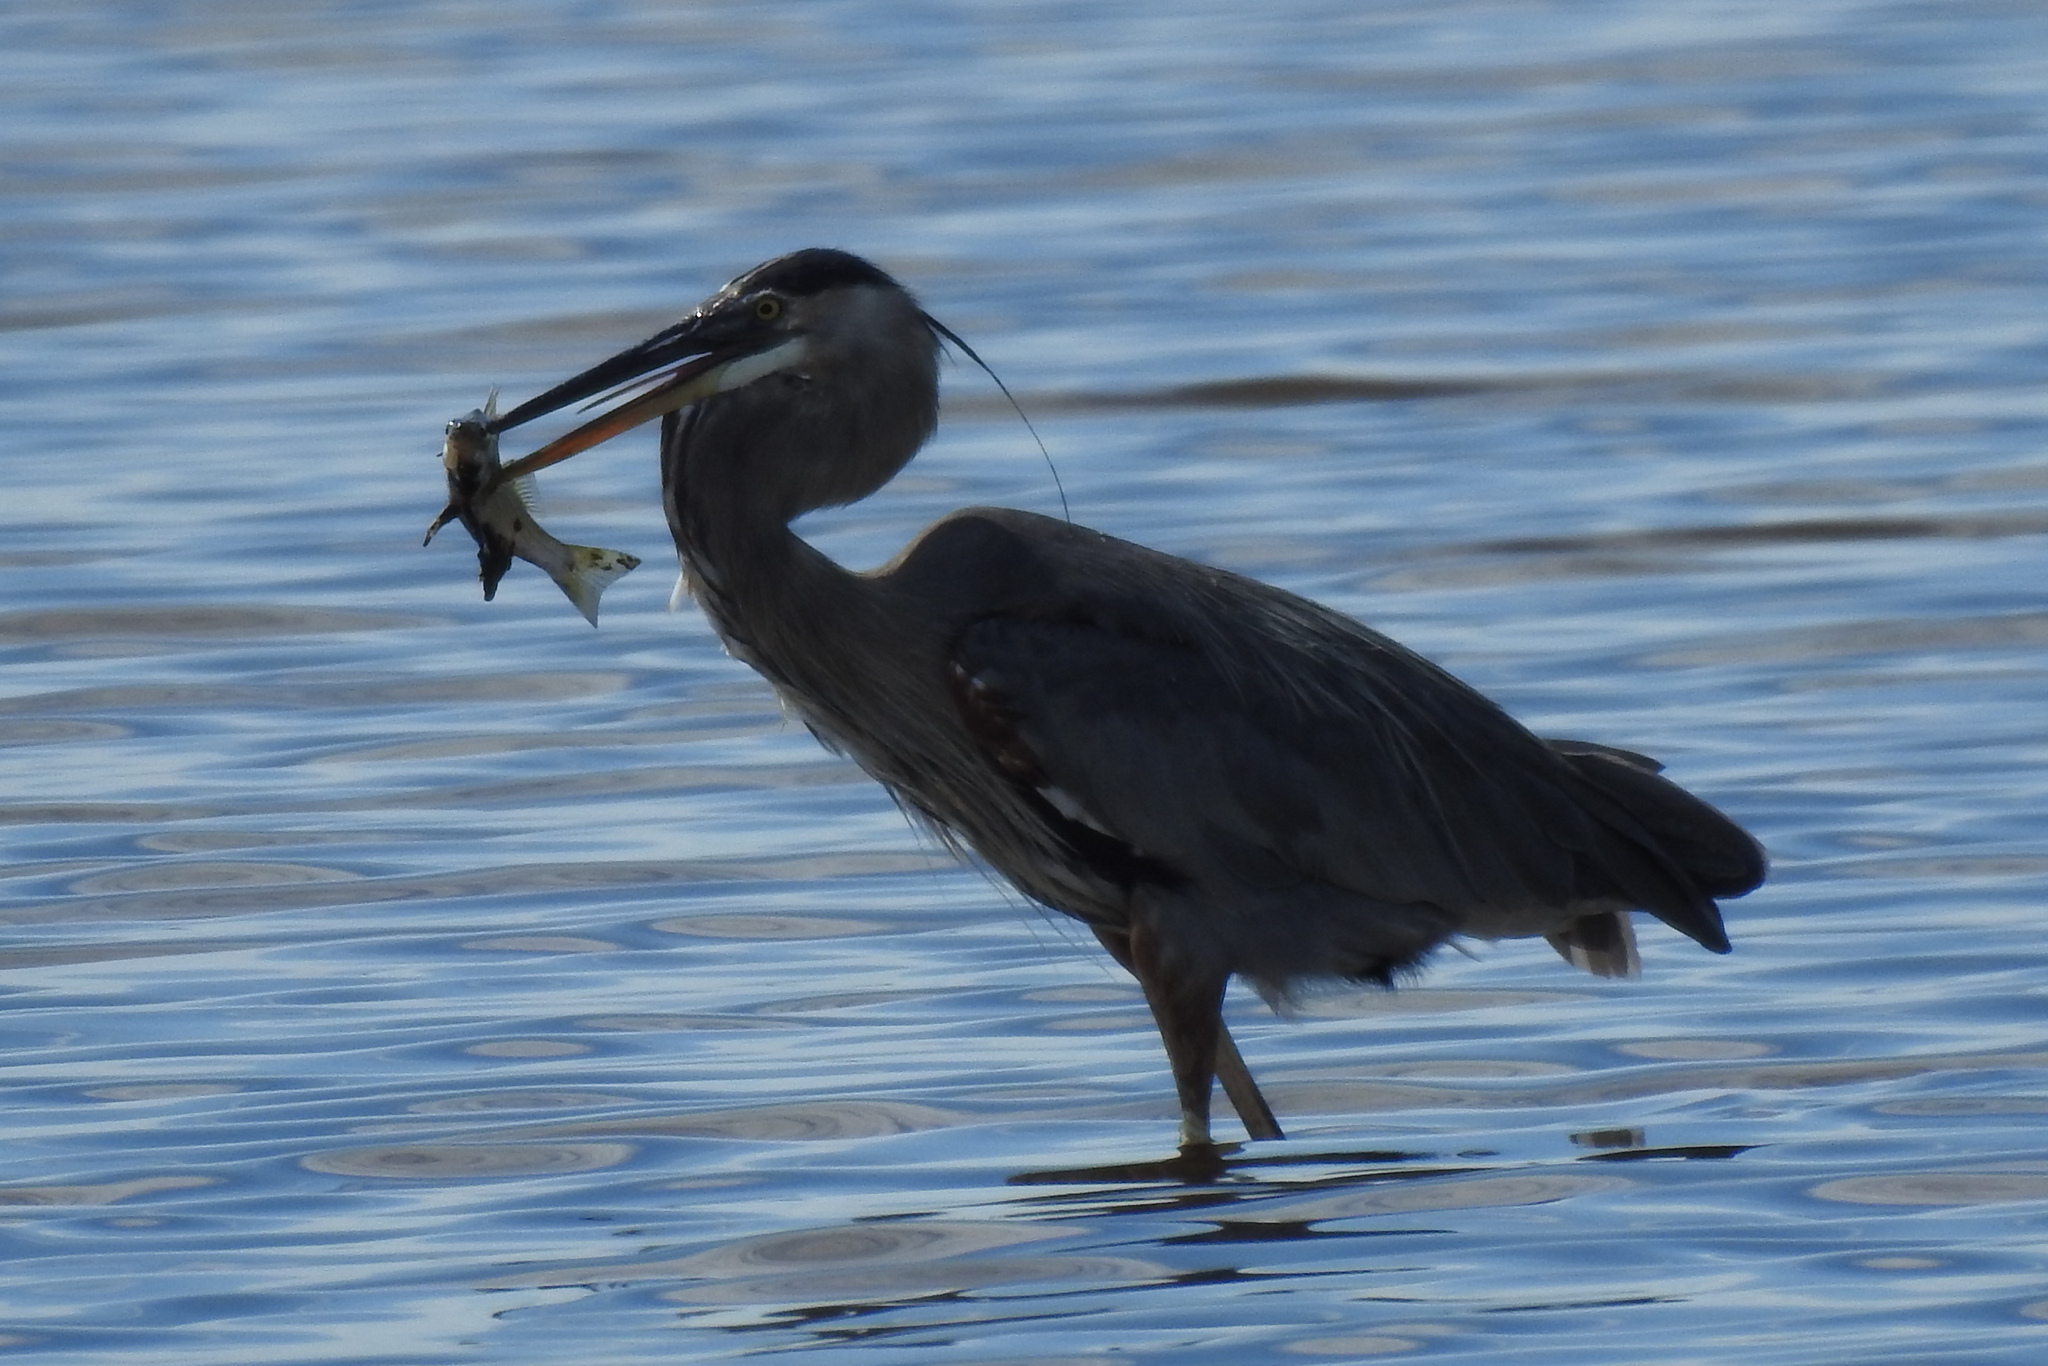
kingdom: Animalia
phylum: Chordata
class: Aves
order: Pelecaniformes
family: Ardeidae
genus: Ardea
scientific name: Ardea herodias
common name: Great blue heron
